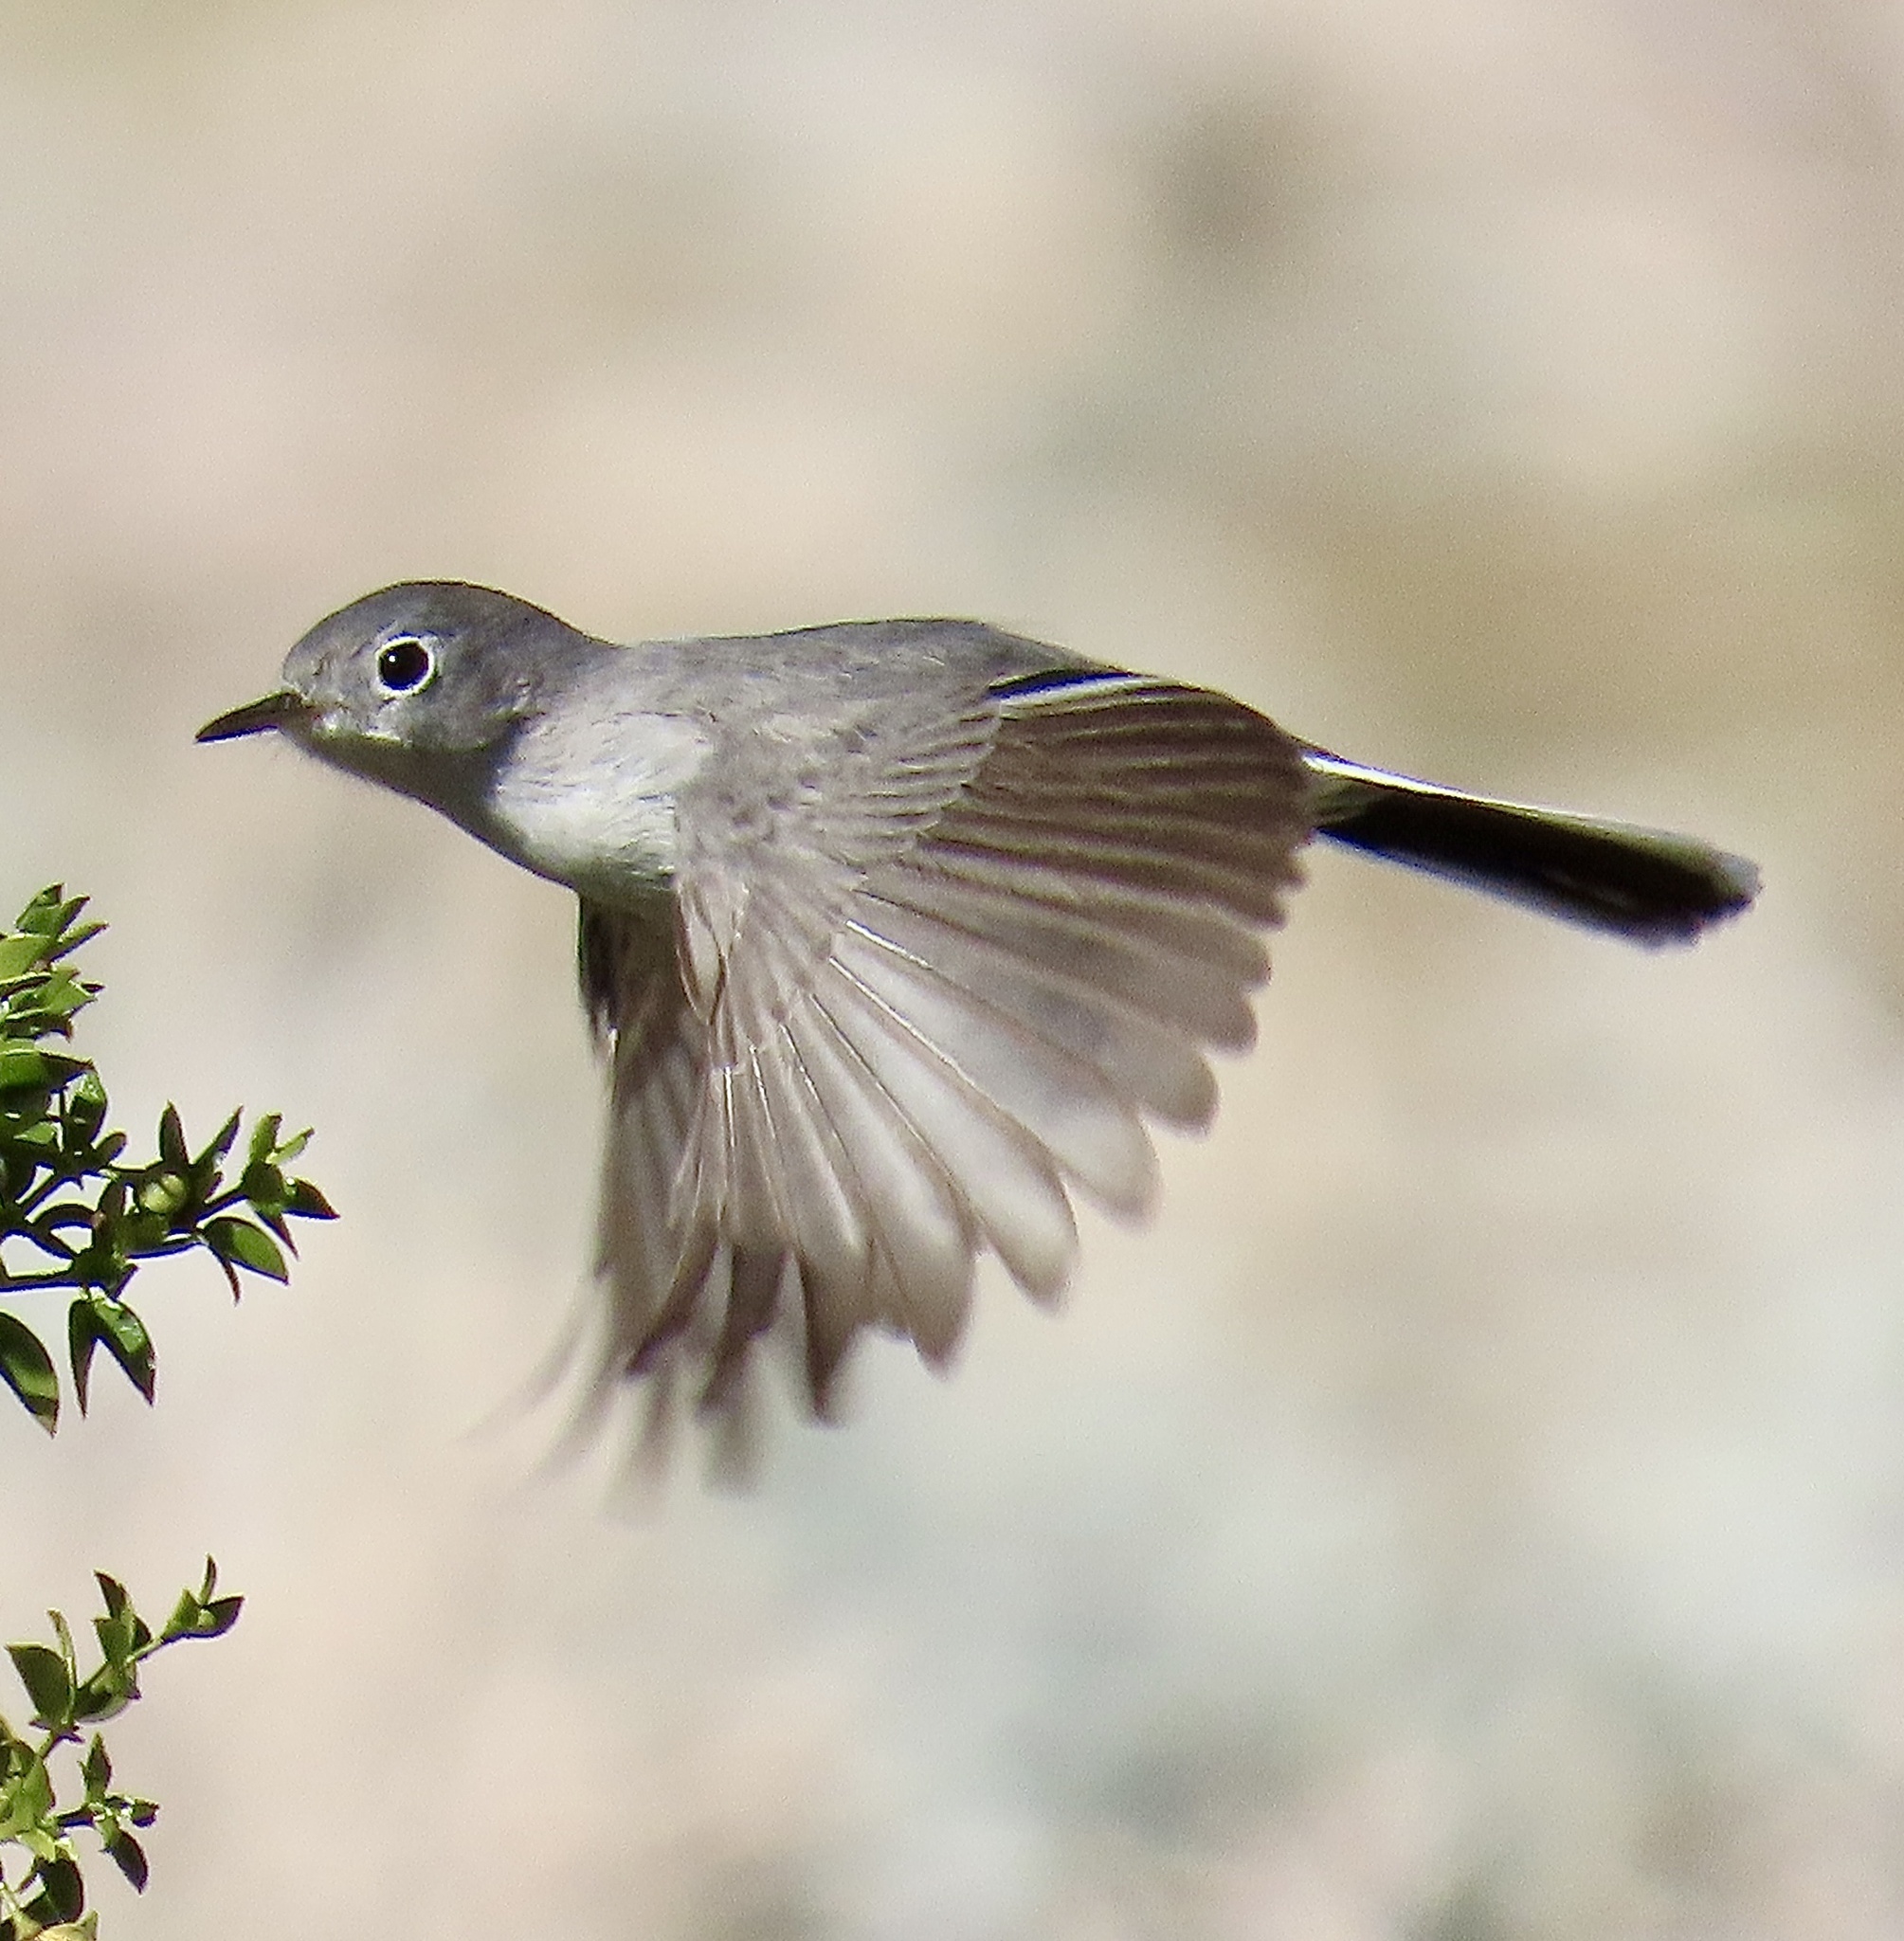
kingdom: Animalia
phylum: Chordata
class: Aves
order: Passeriformes
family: Polioptilidae
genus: Polioptila
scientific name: Polioptila melanura
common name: Black-tailed gnatcatcher
